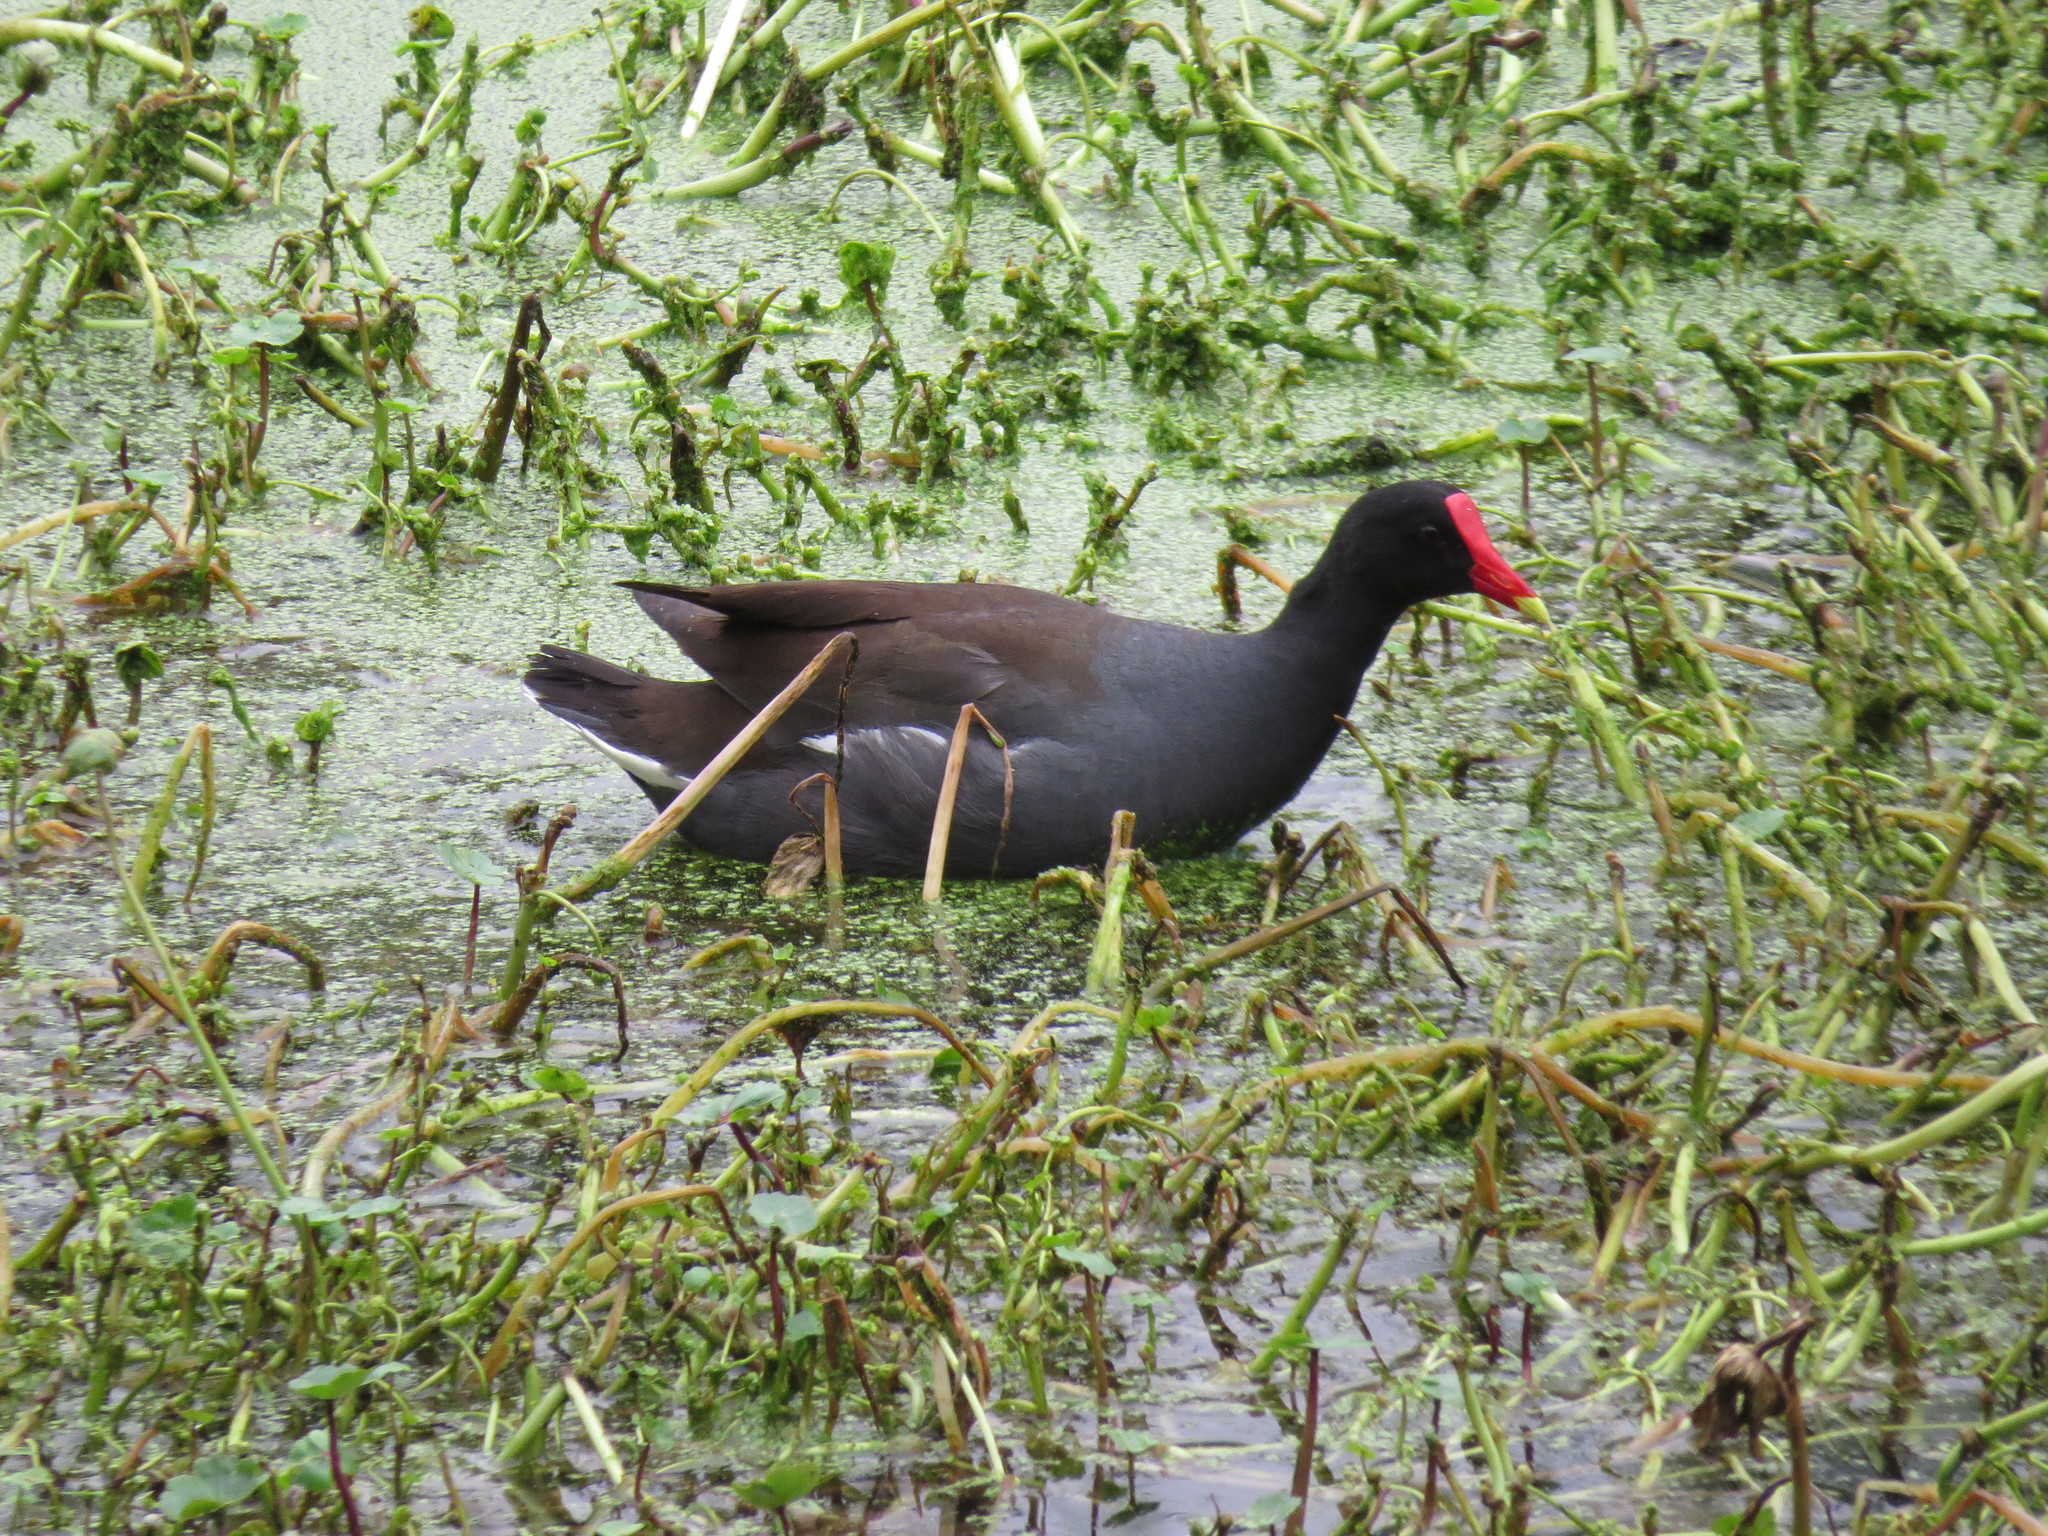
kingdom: Animalia
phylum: Chordata
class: Aves
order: Gruiformes
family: Rallidae
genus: Gallinula
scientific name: Gallinula chloropus
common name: Common moorhen
